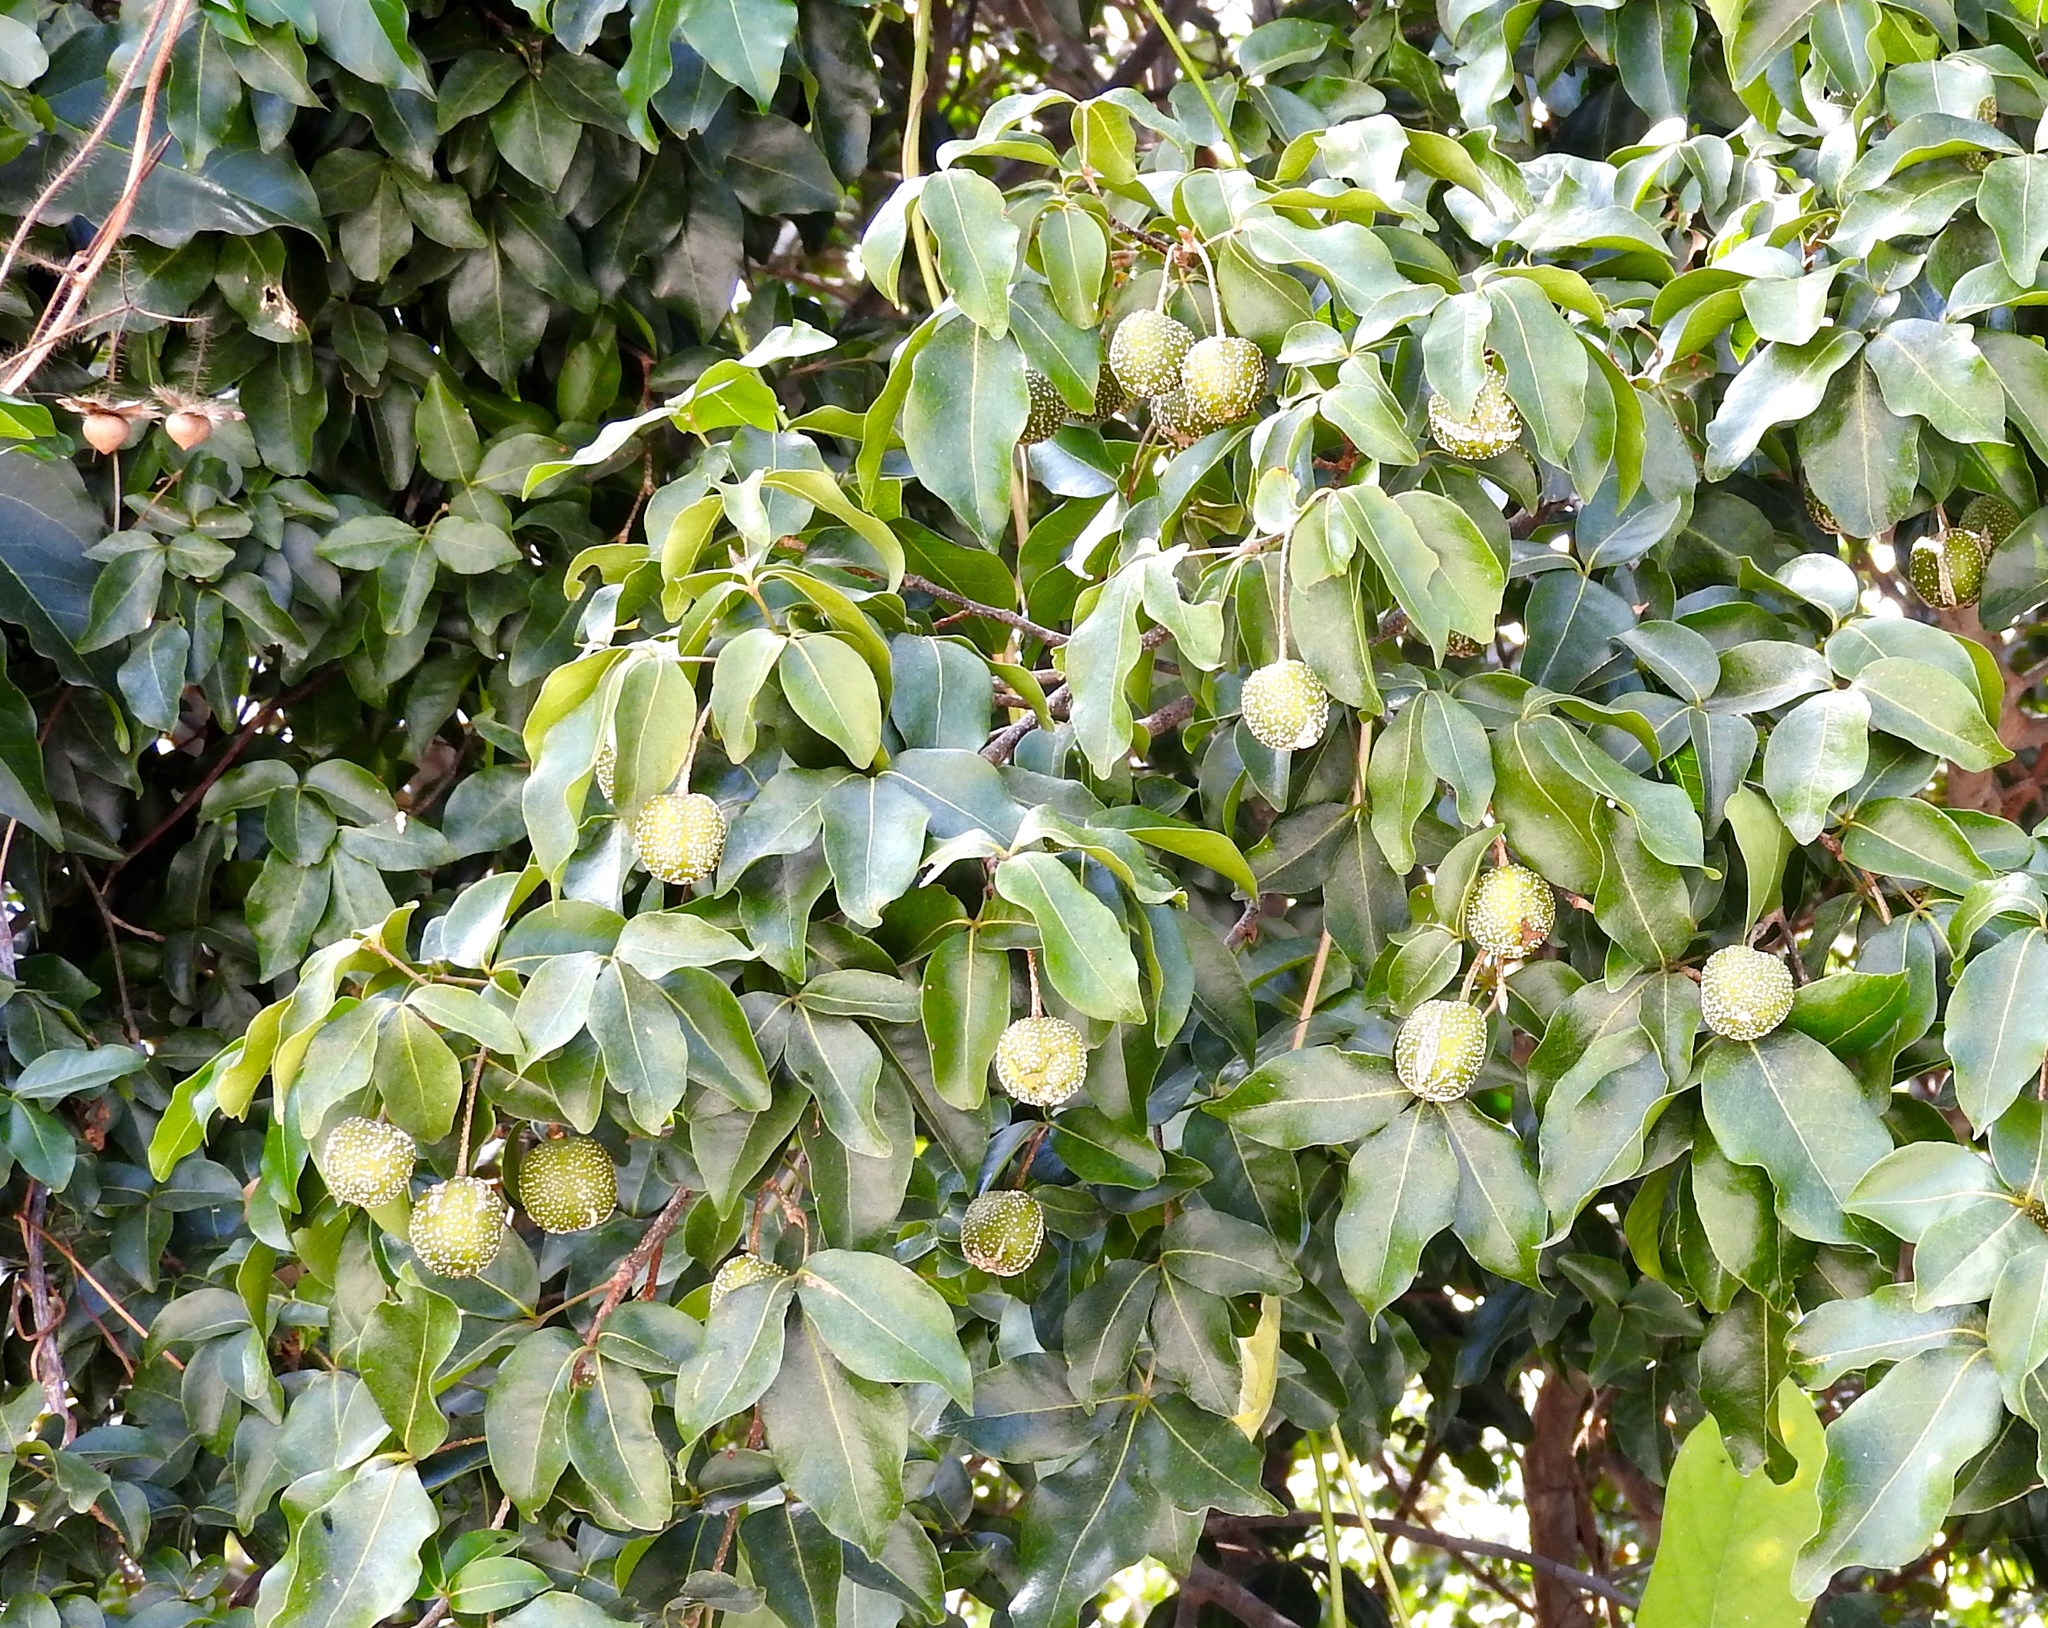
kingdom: Plantae
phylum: Tracheophyta
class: Magnoliopsida
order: Malpighiales
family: Picrodendraceae
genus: Piranhea
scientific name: Piranhea mexicana
